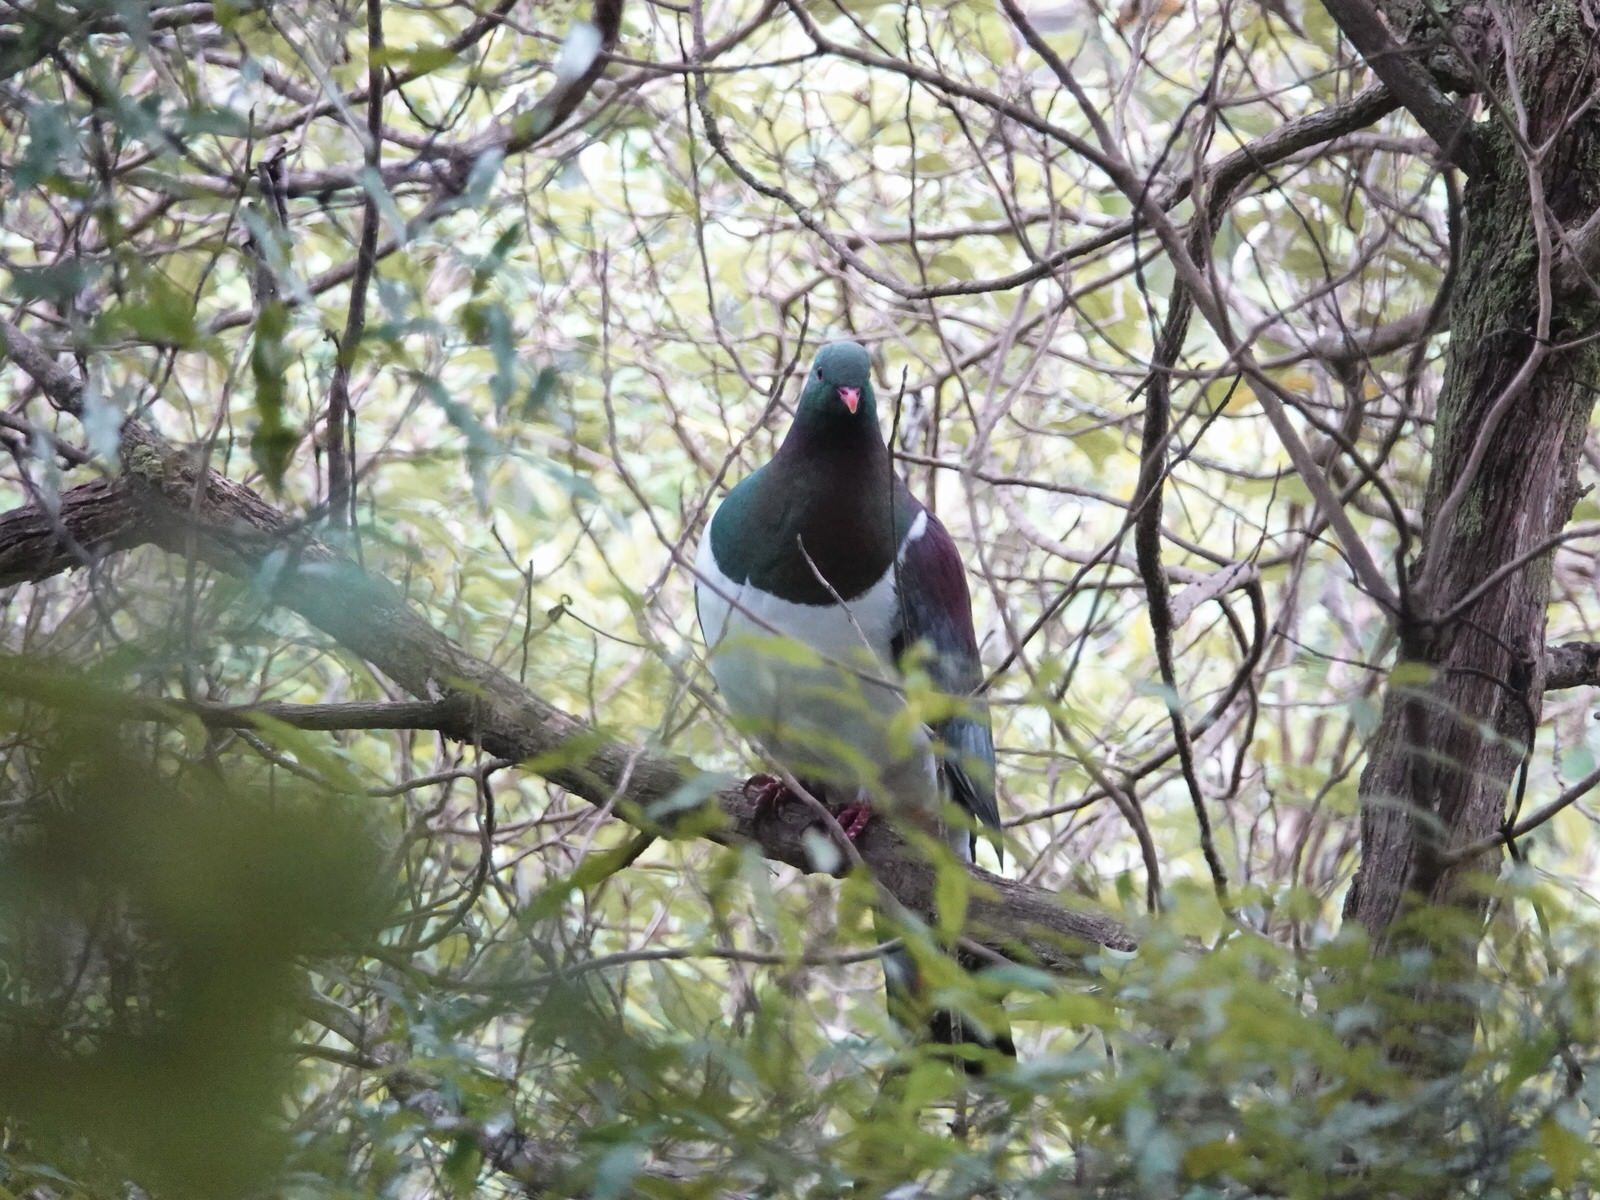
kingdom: Animalia
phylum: Chordata
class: Aves
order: Columbiformes
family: Columbidae
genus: Hemiphaga
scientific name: Hemiphaga novaeseelandiae
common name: New zealand pigeon
